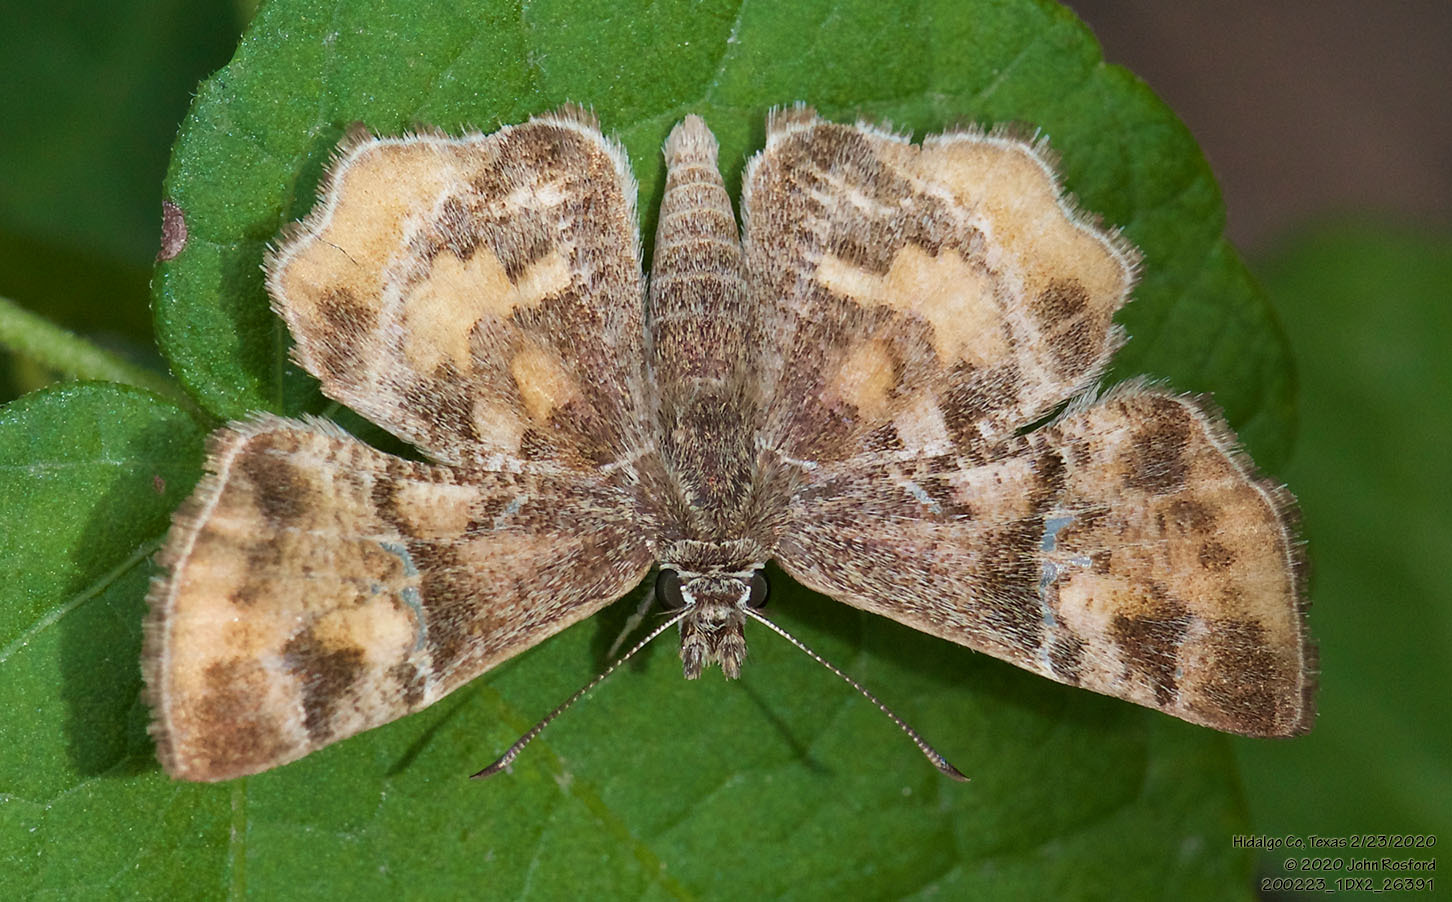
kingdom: Animalia
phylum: Arthropoda
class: Insecta
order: Lepidoptera
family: Hesperiidae
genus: Systasea
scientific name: Systasea pulverulenta
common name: Texas powdered skipper
